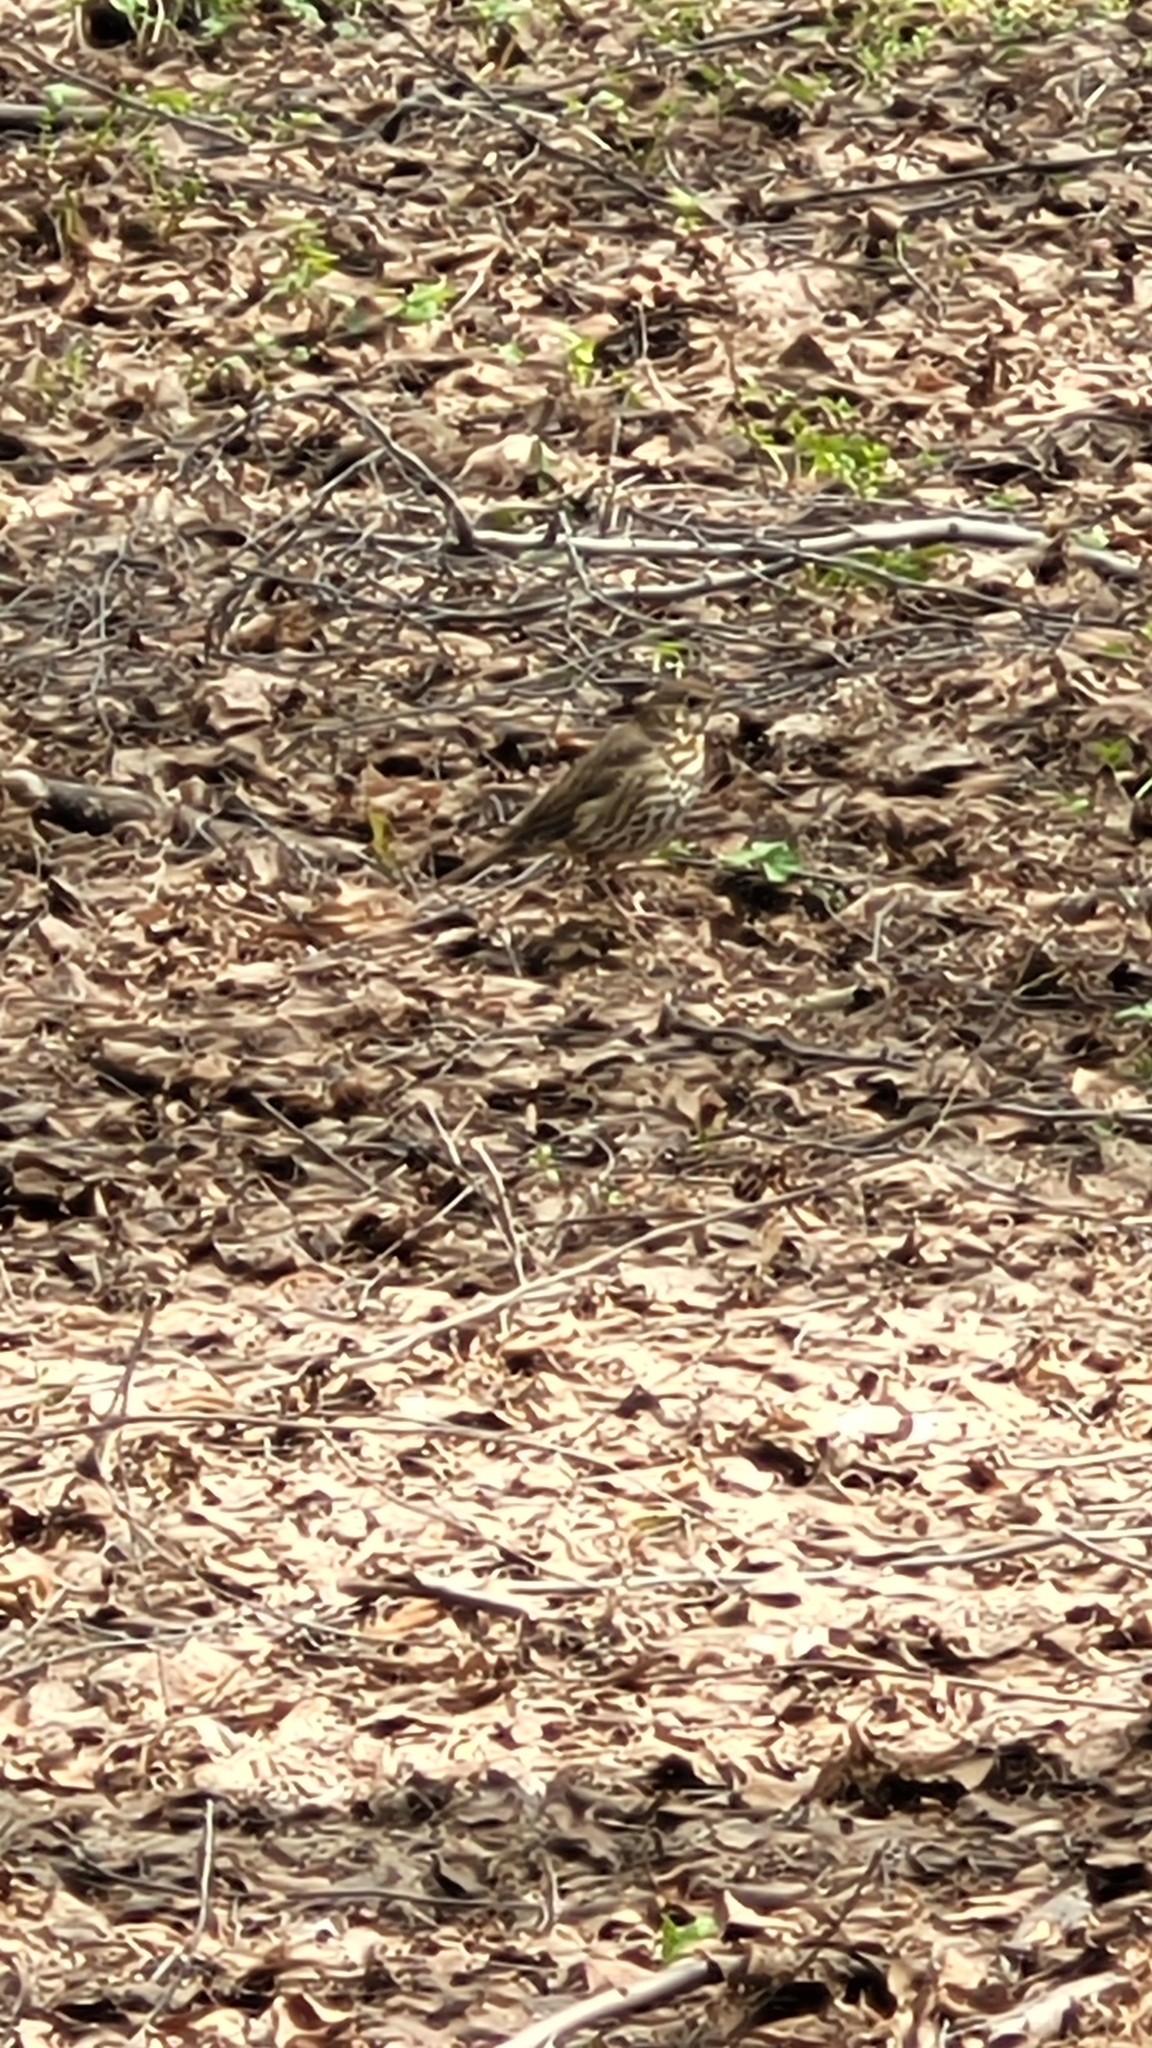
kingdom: Animalia
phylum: Chordata
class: Aves
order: Passeriformes
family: Turdidae
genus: Turdus
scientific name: Turdus philomelos
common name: Song thrush
